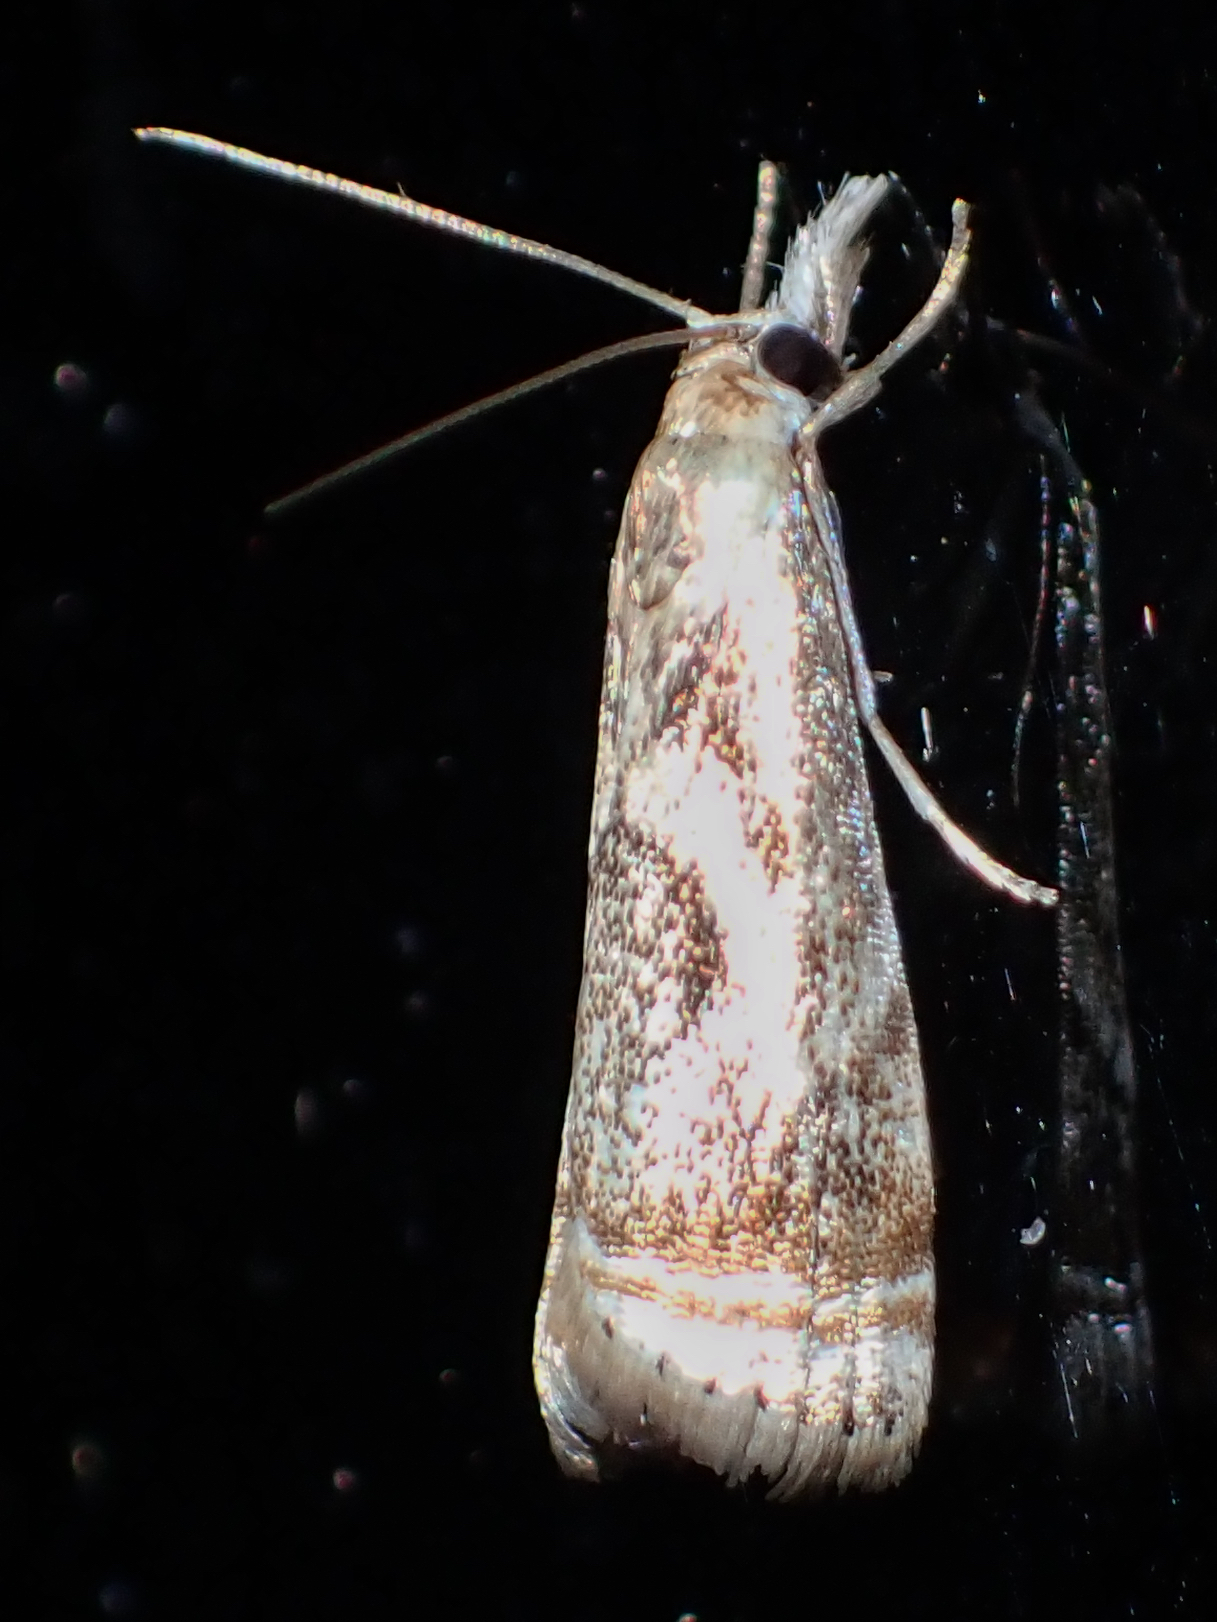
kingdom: Animalia
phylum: Arthropoda
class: Insecta
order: Lepidoptera
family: Crambidae
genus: Microcrambus
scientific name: Microcrambus elegans
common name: Elegant grass-veneer
